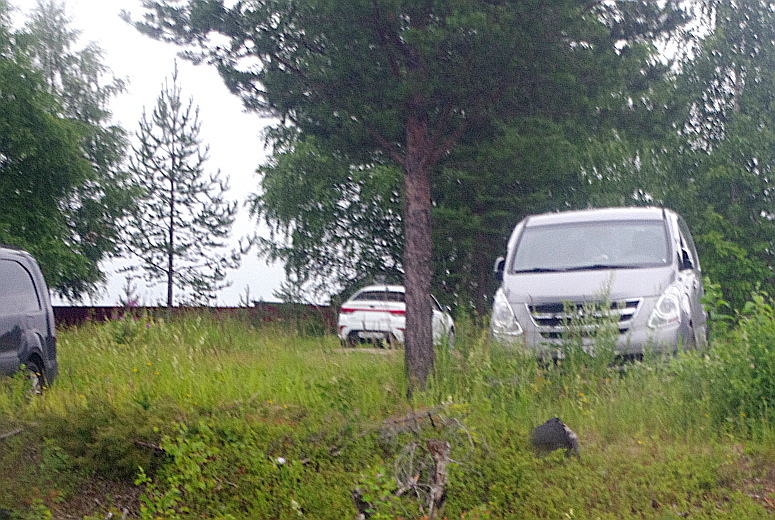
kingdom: Plantae
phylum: Tracheophyta
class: Pinopsida
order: Pinales
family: Pinaceae
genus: Pinus
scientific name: Pinus sylvestris
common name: Scots pine
